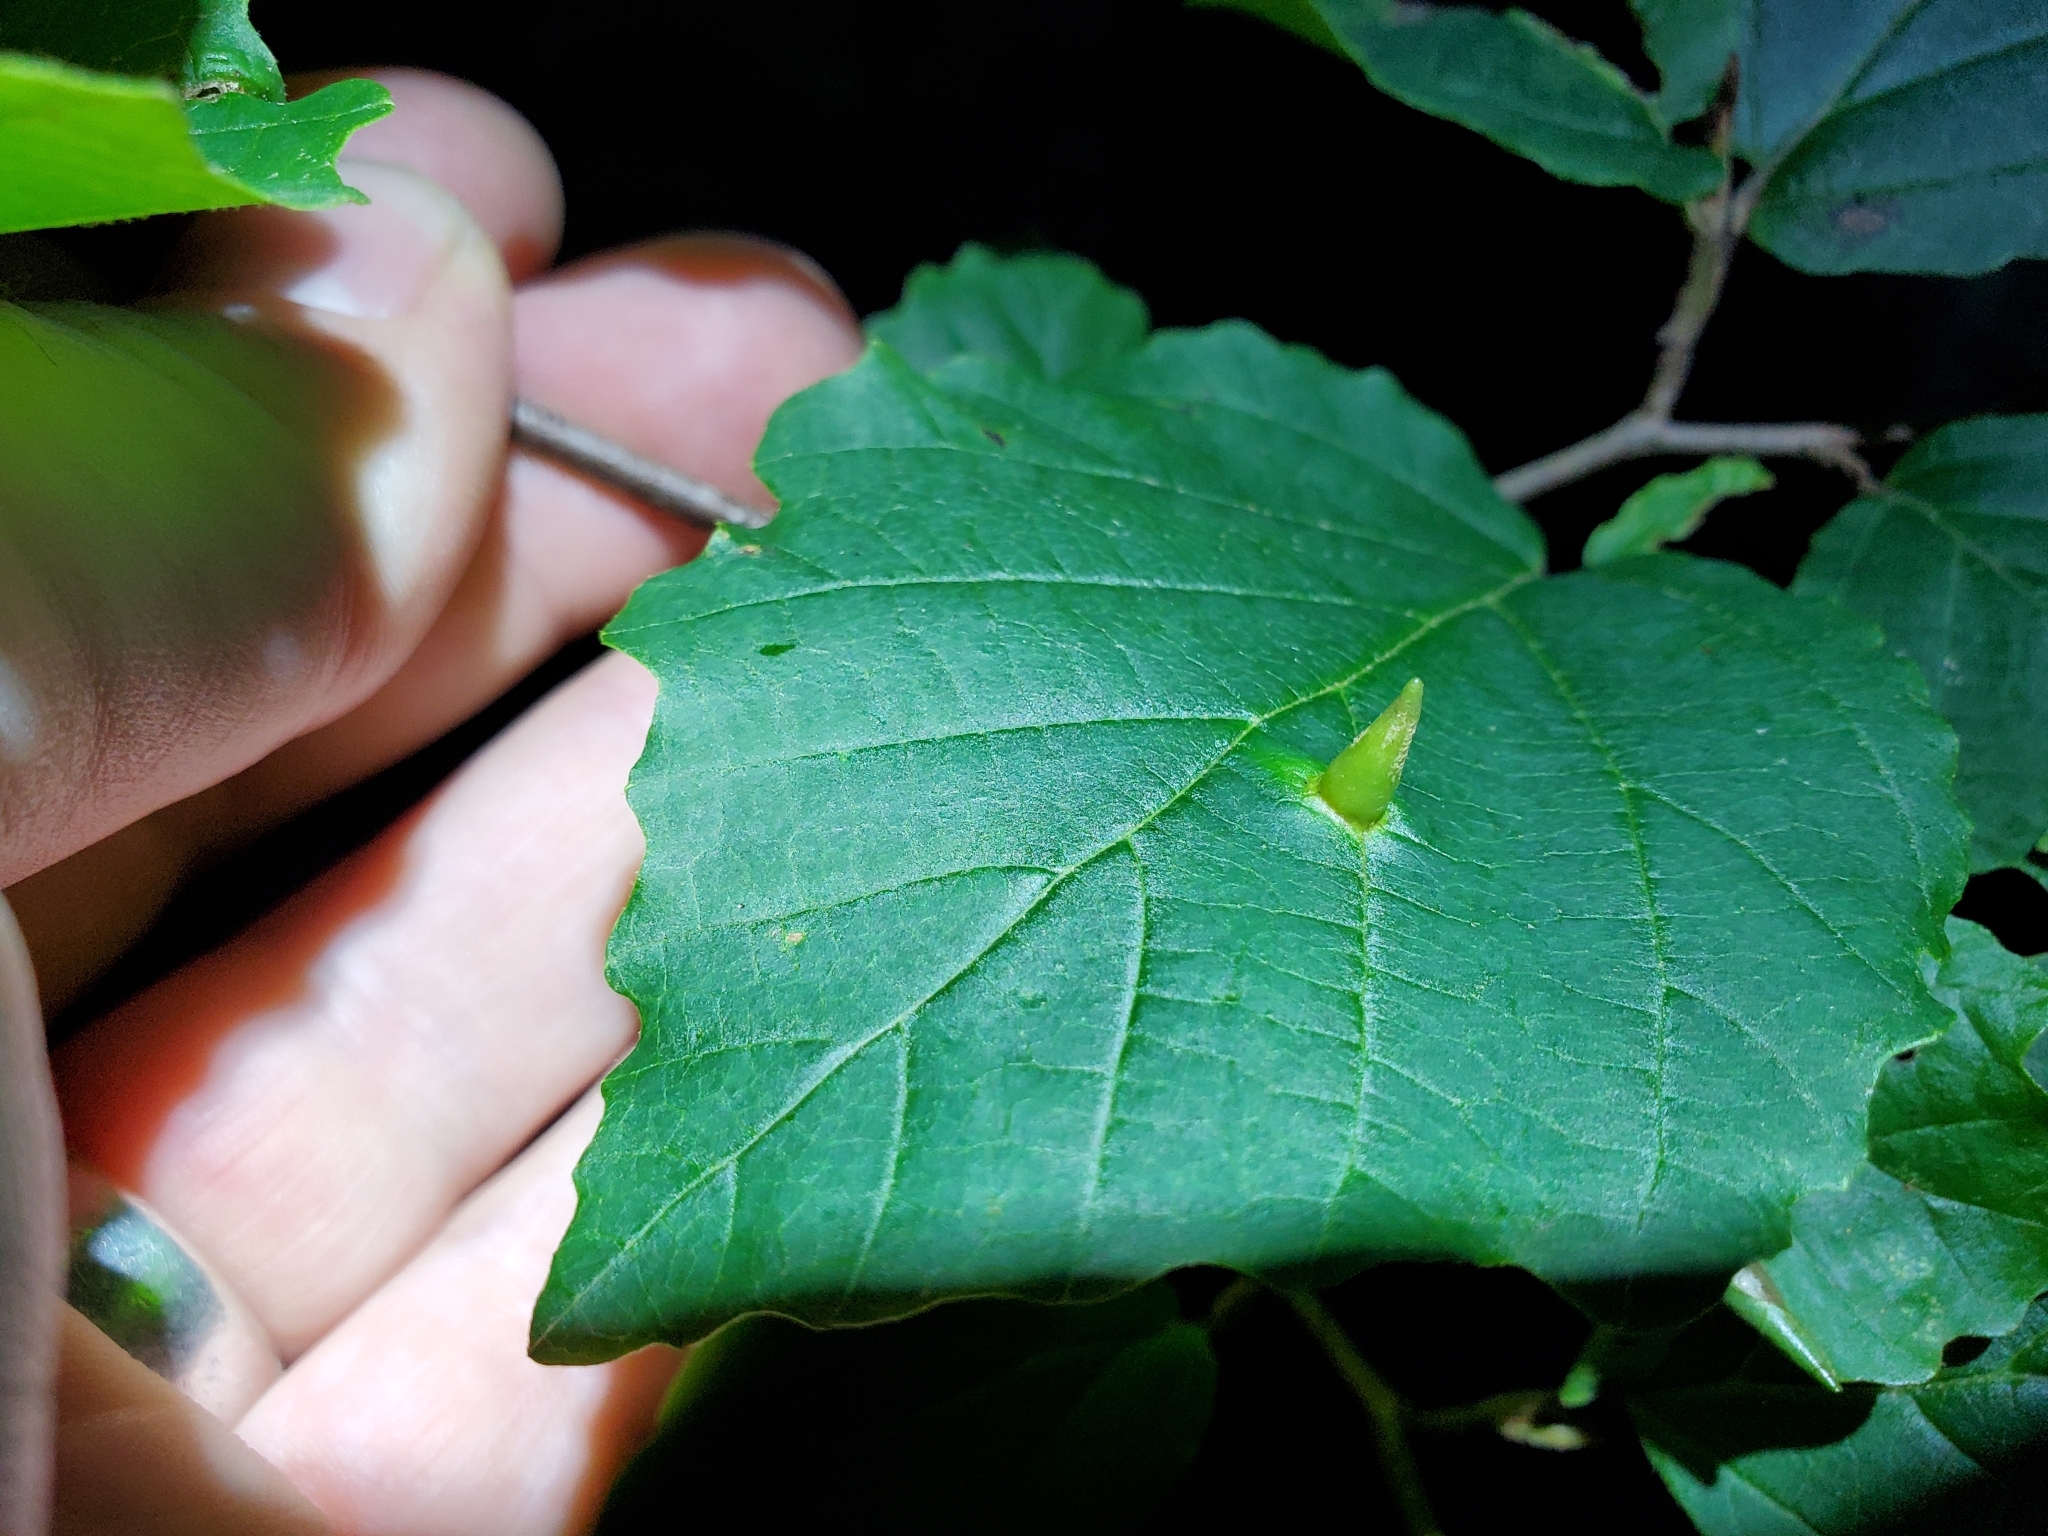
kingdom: Animalia
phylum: Arthropoda
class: Insecta
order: Hemiptera
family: Aphididae
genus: Hormaphis
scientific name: Hormaphis hamamelidis
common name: Witch-hazel cone gall aphid
